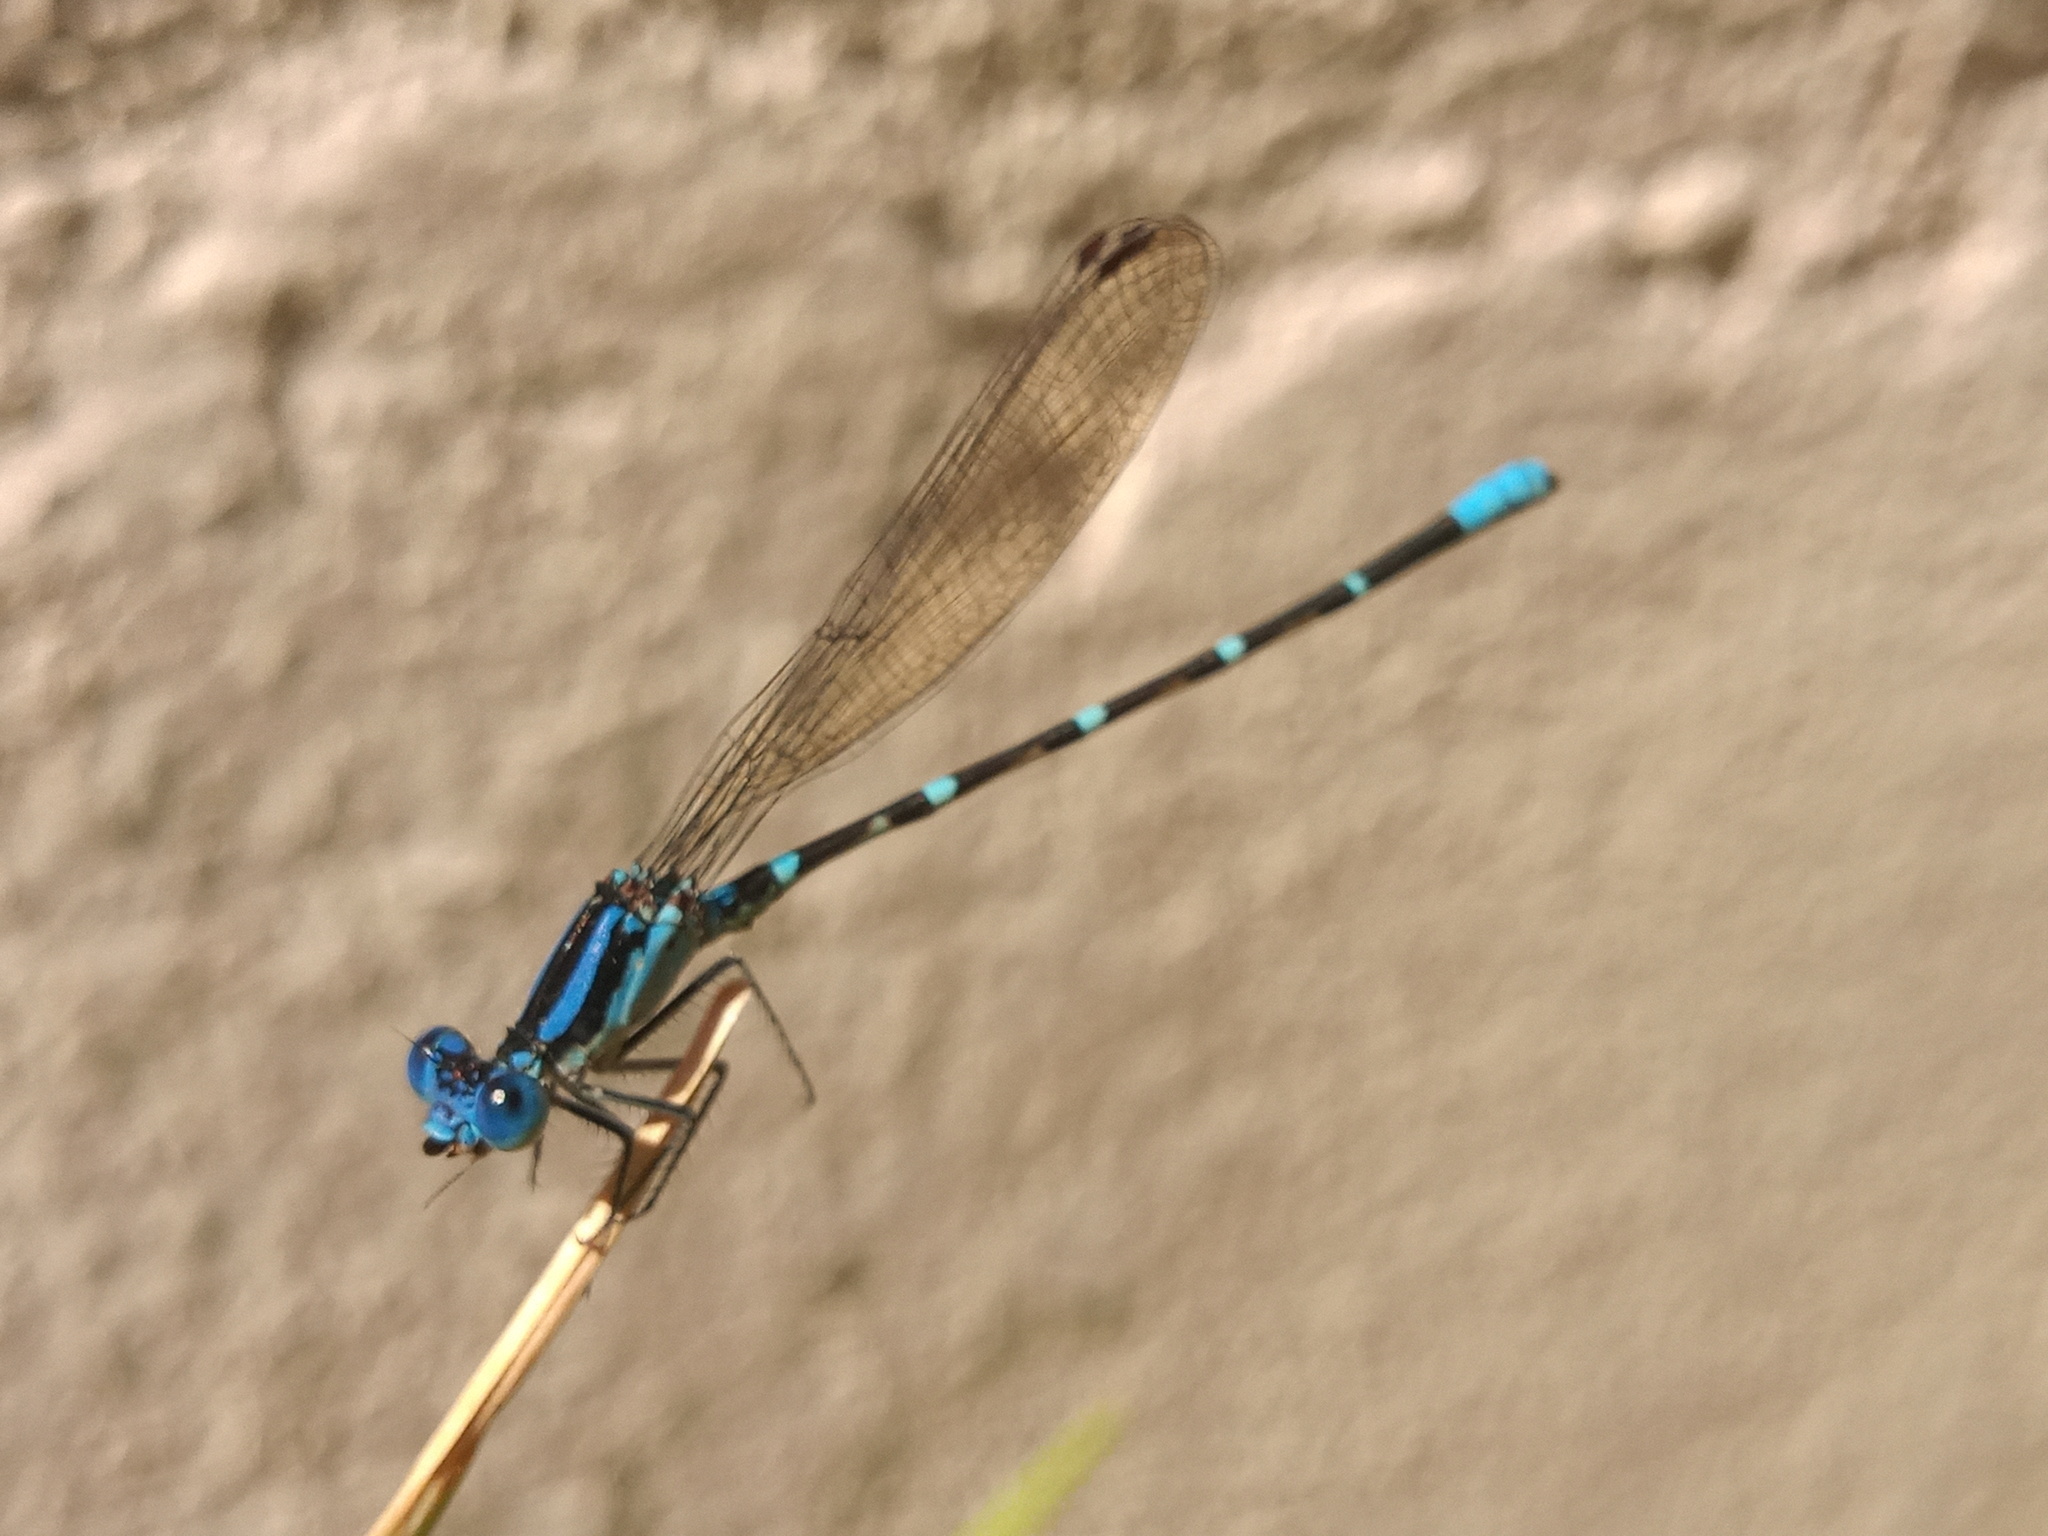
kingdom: Animalia
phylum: Arthropoda
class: Insecta
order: Odonata
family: Coenagrionidae
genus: Argia
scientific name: Argia sedula
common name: Blue-ringed dancer
